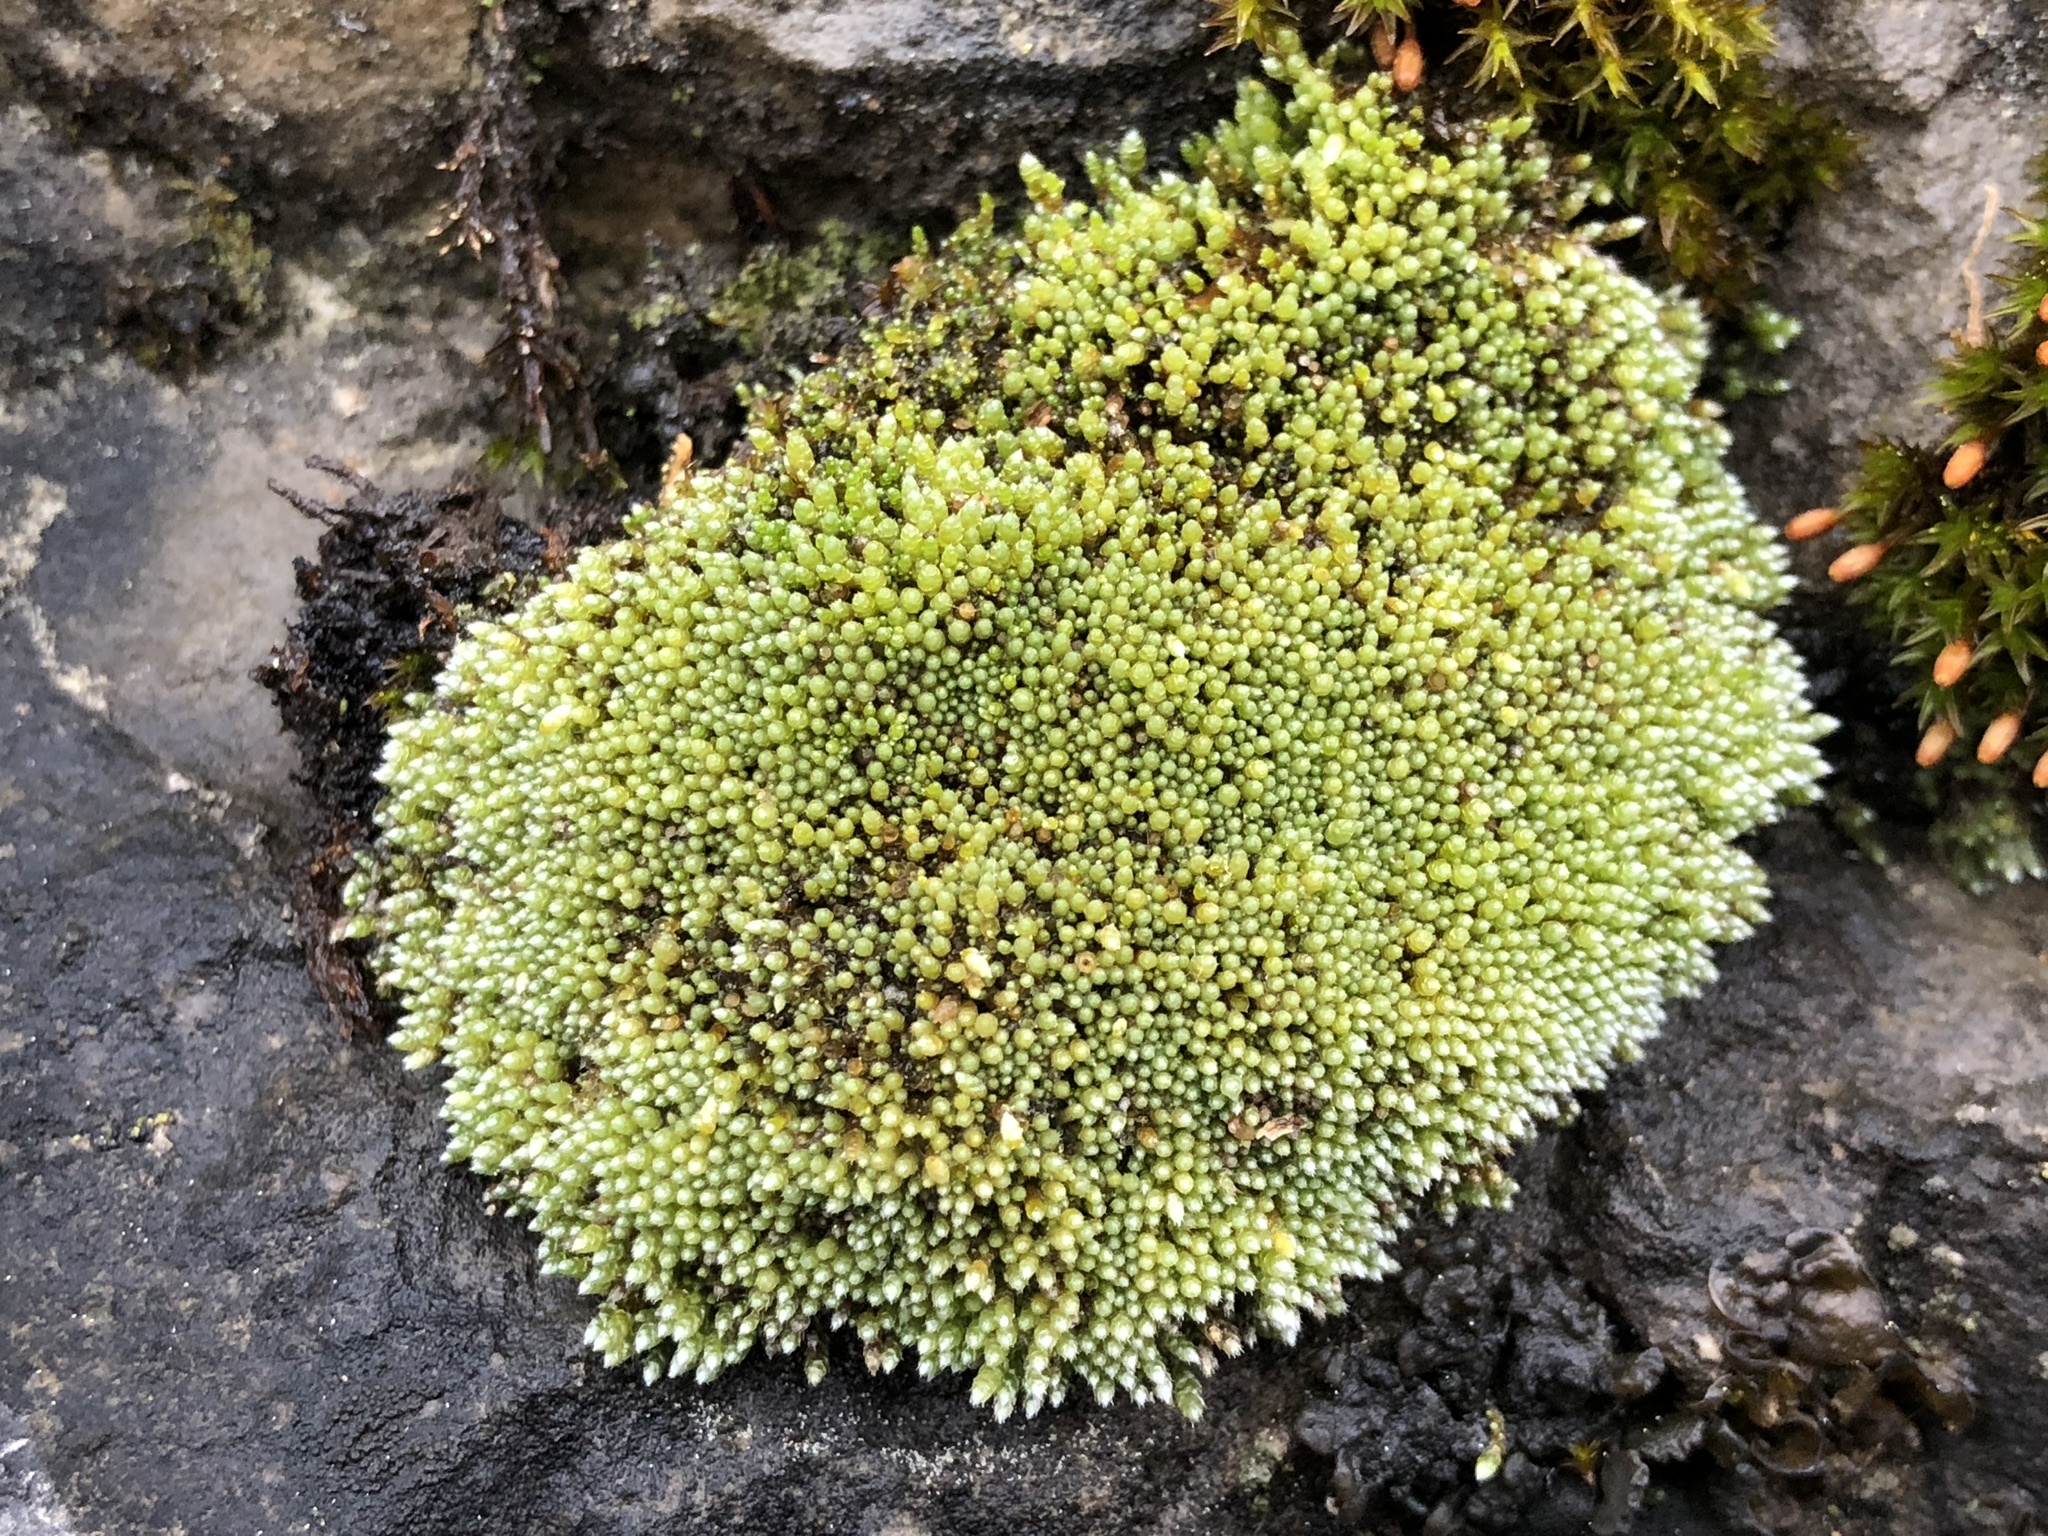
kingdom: Plantae
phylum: Bryophyta
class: Bryopsida
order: Bryales
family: Bryaceae
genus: Bryum
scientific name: Bryum argenteum
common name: Silver-moss
